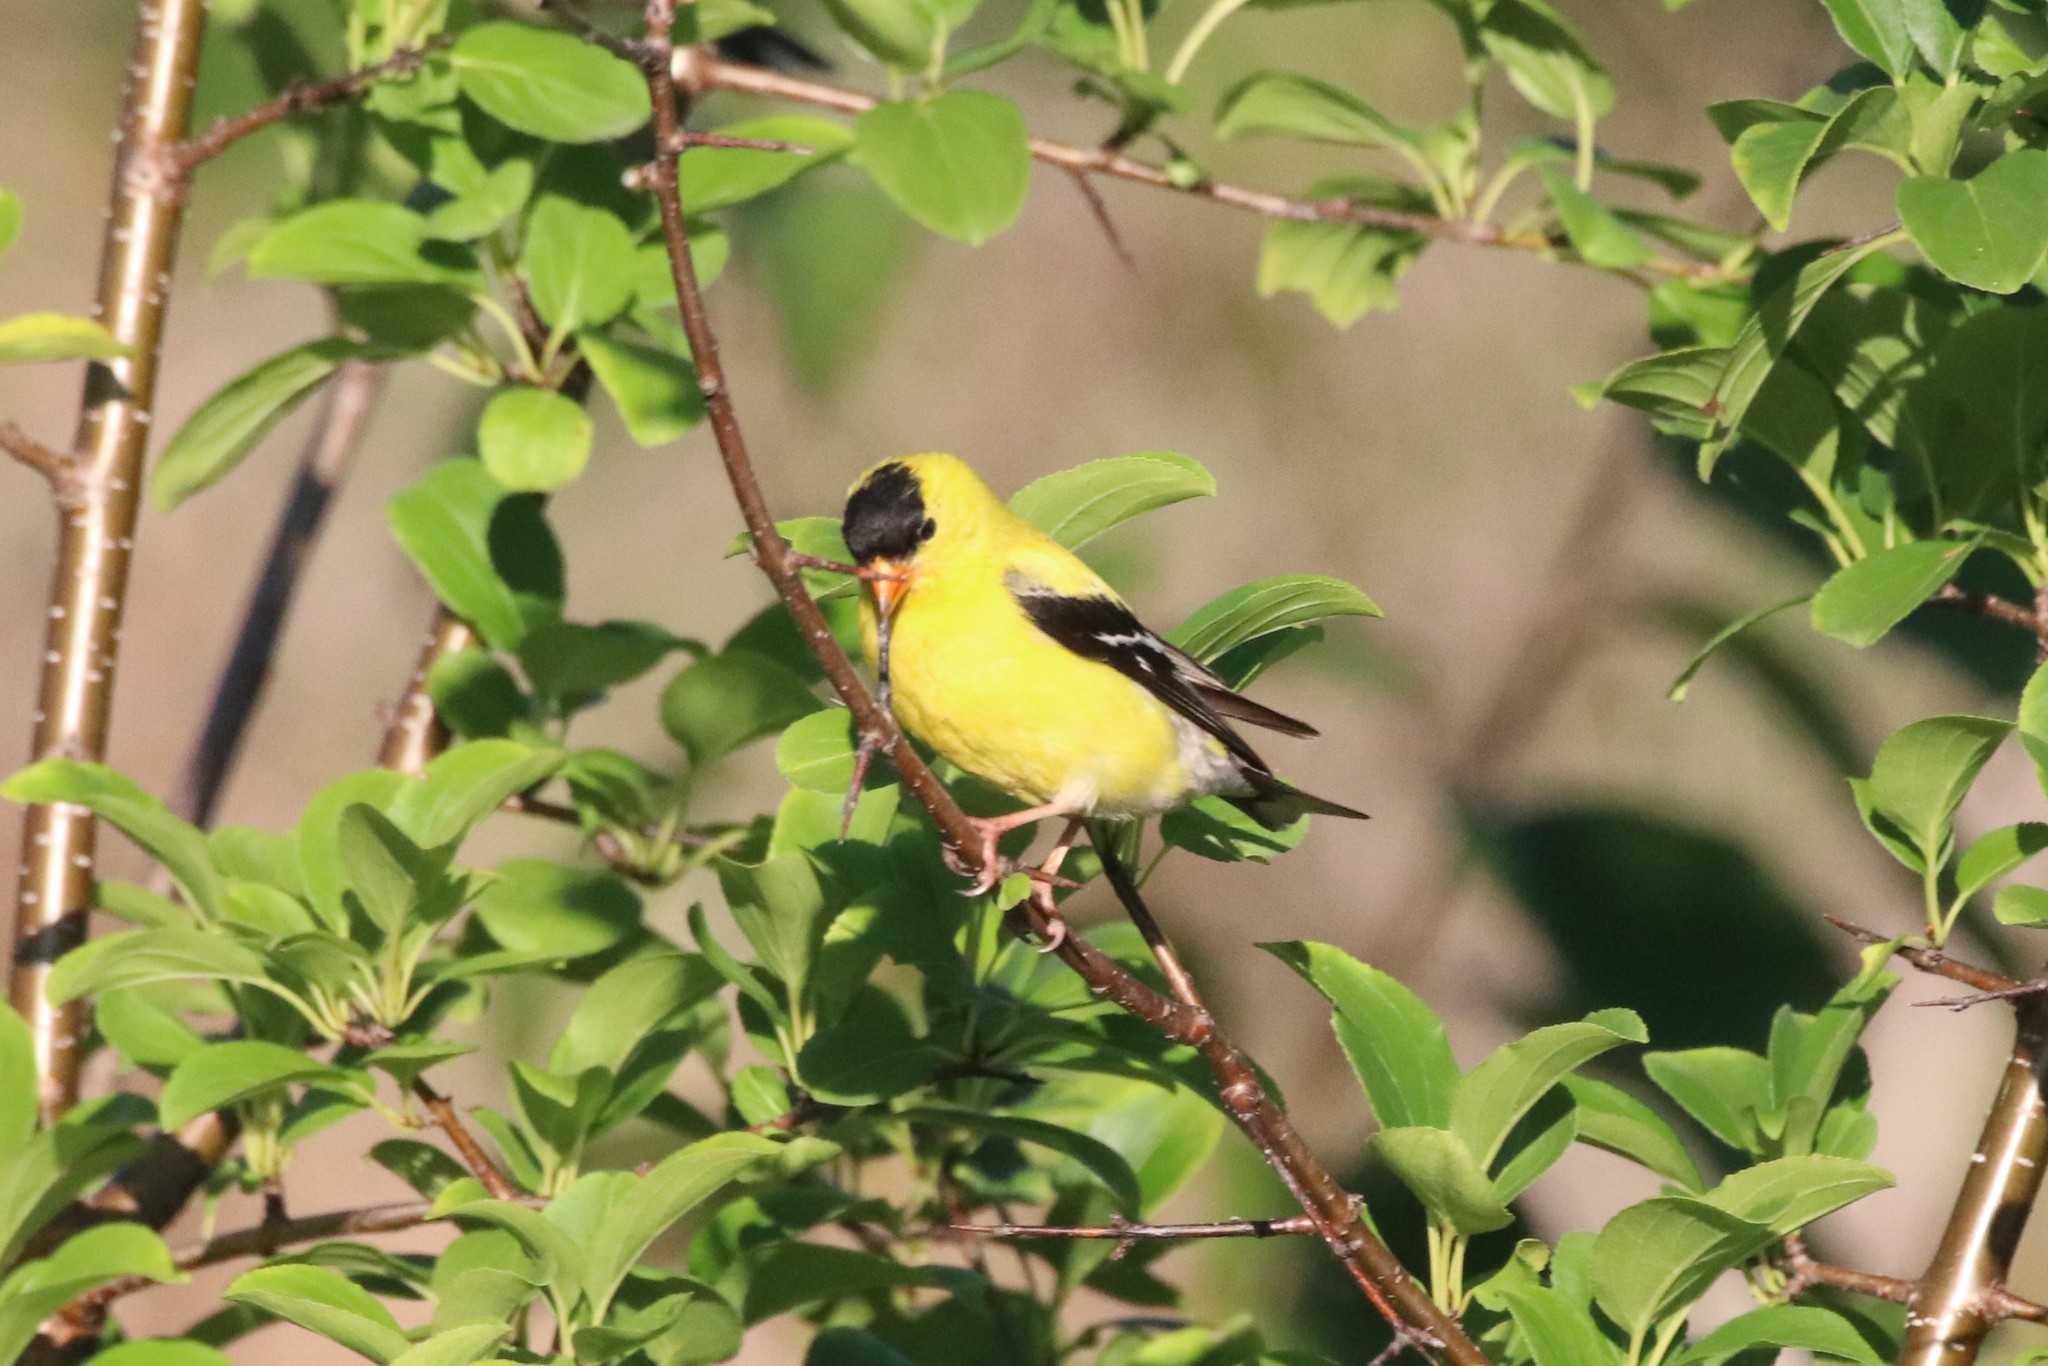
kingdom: Animalia
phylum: Chordata
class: Aves
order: Passeriformes
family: Fringillidae
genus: Spinus
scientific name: Spinus tristis
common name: American goldfinch
